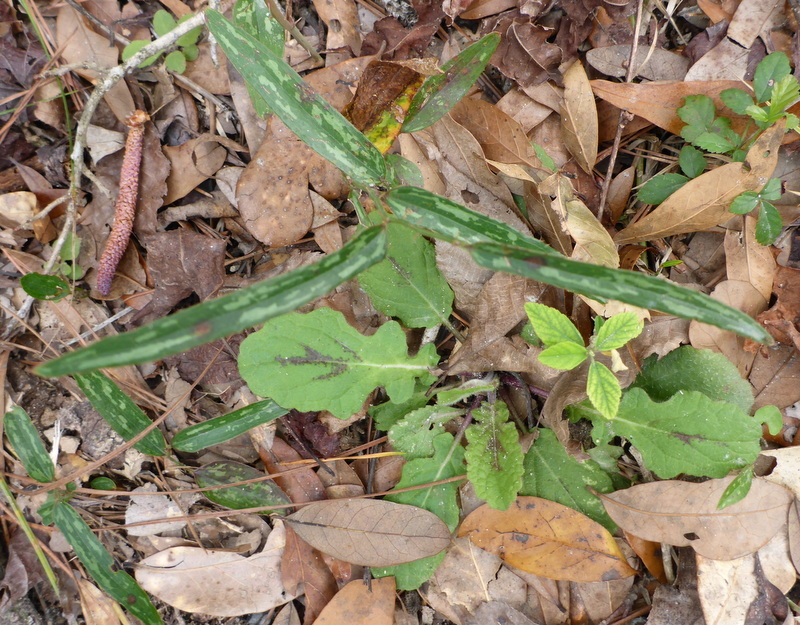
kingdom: Plantae
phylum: Tracheophyta
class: Liliopsida
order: Liliales
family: Smilacaceae
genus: Smilax
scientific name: Smilax bona-nox
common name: Catbrier
